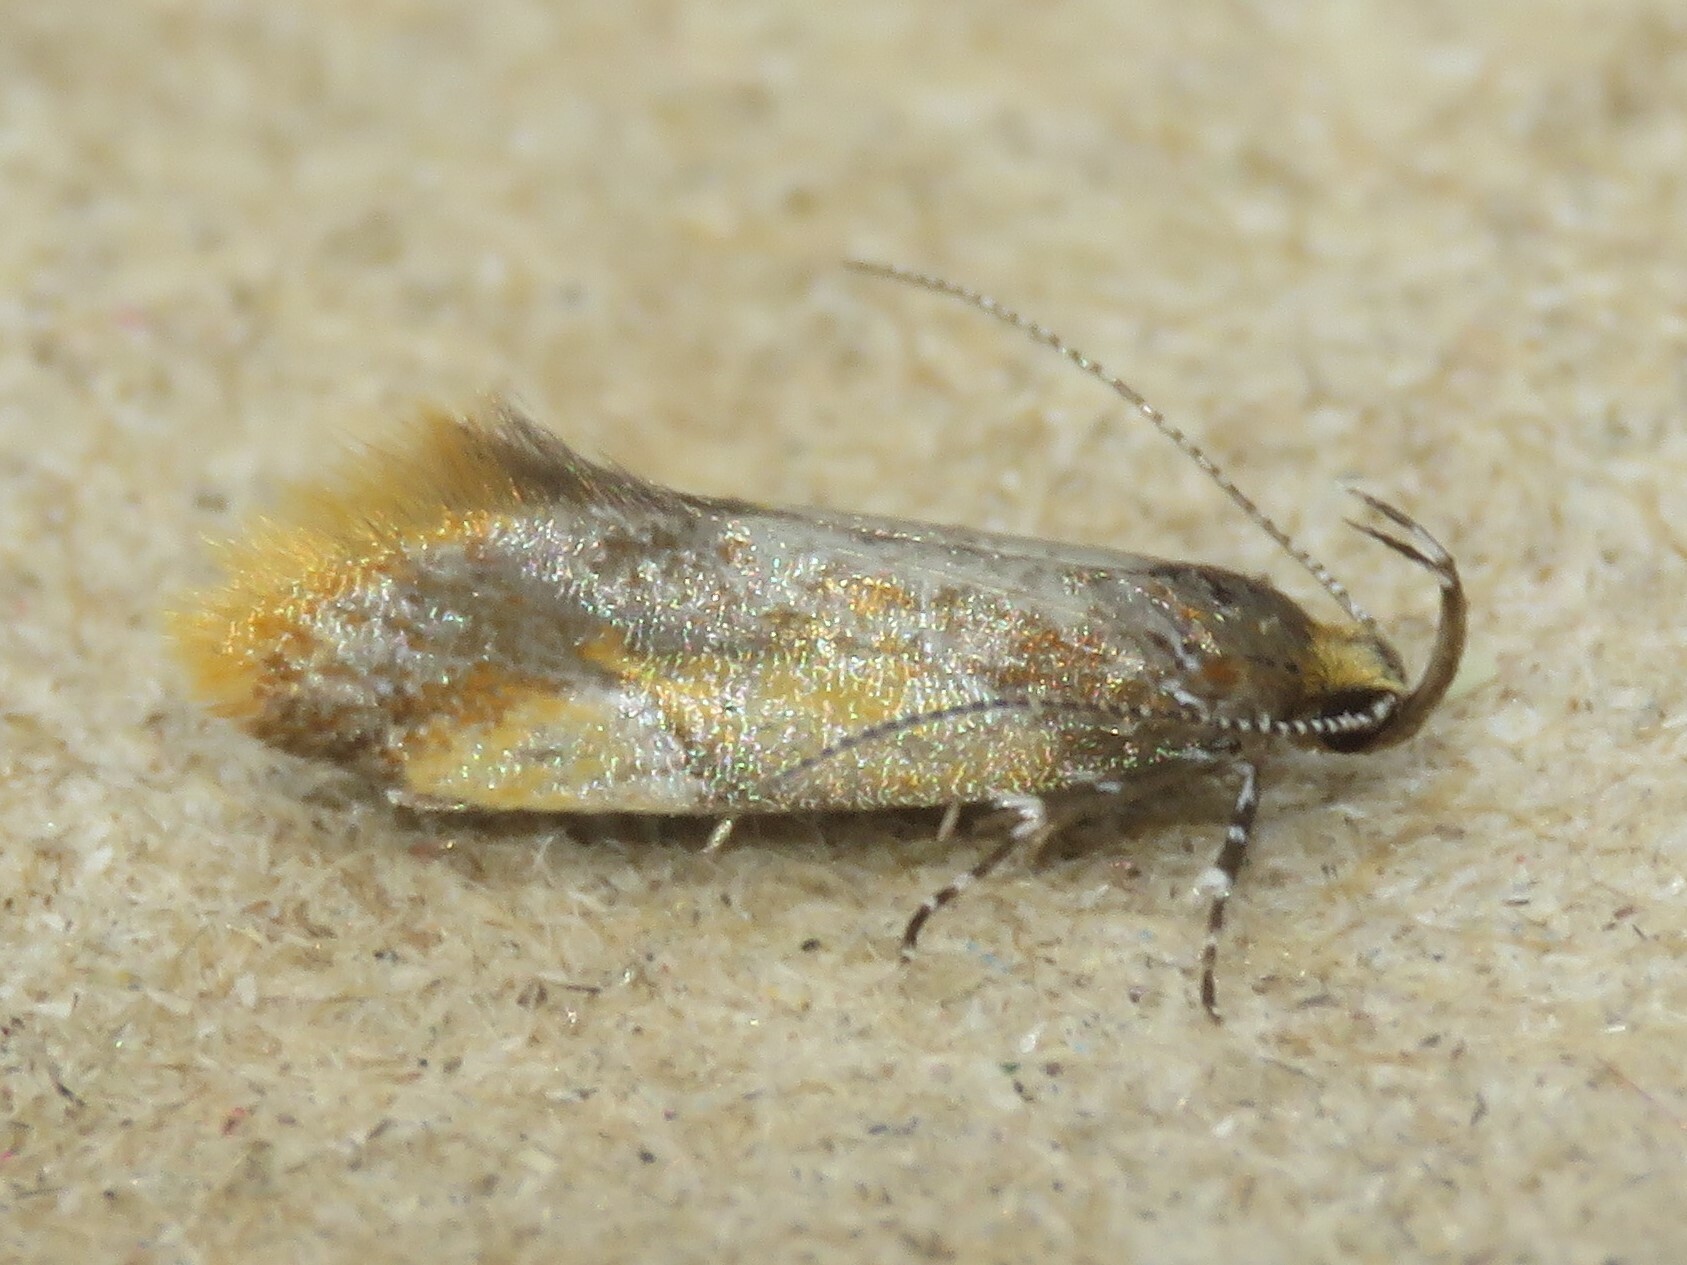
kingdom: Animalia
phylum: Arthropoda
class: Insecta
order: Lepidoptera
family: Oecophoridae
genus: Callima
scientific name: Callima argenticinctella
